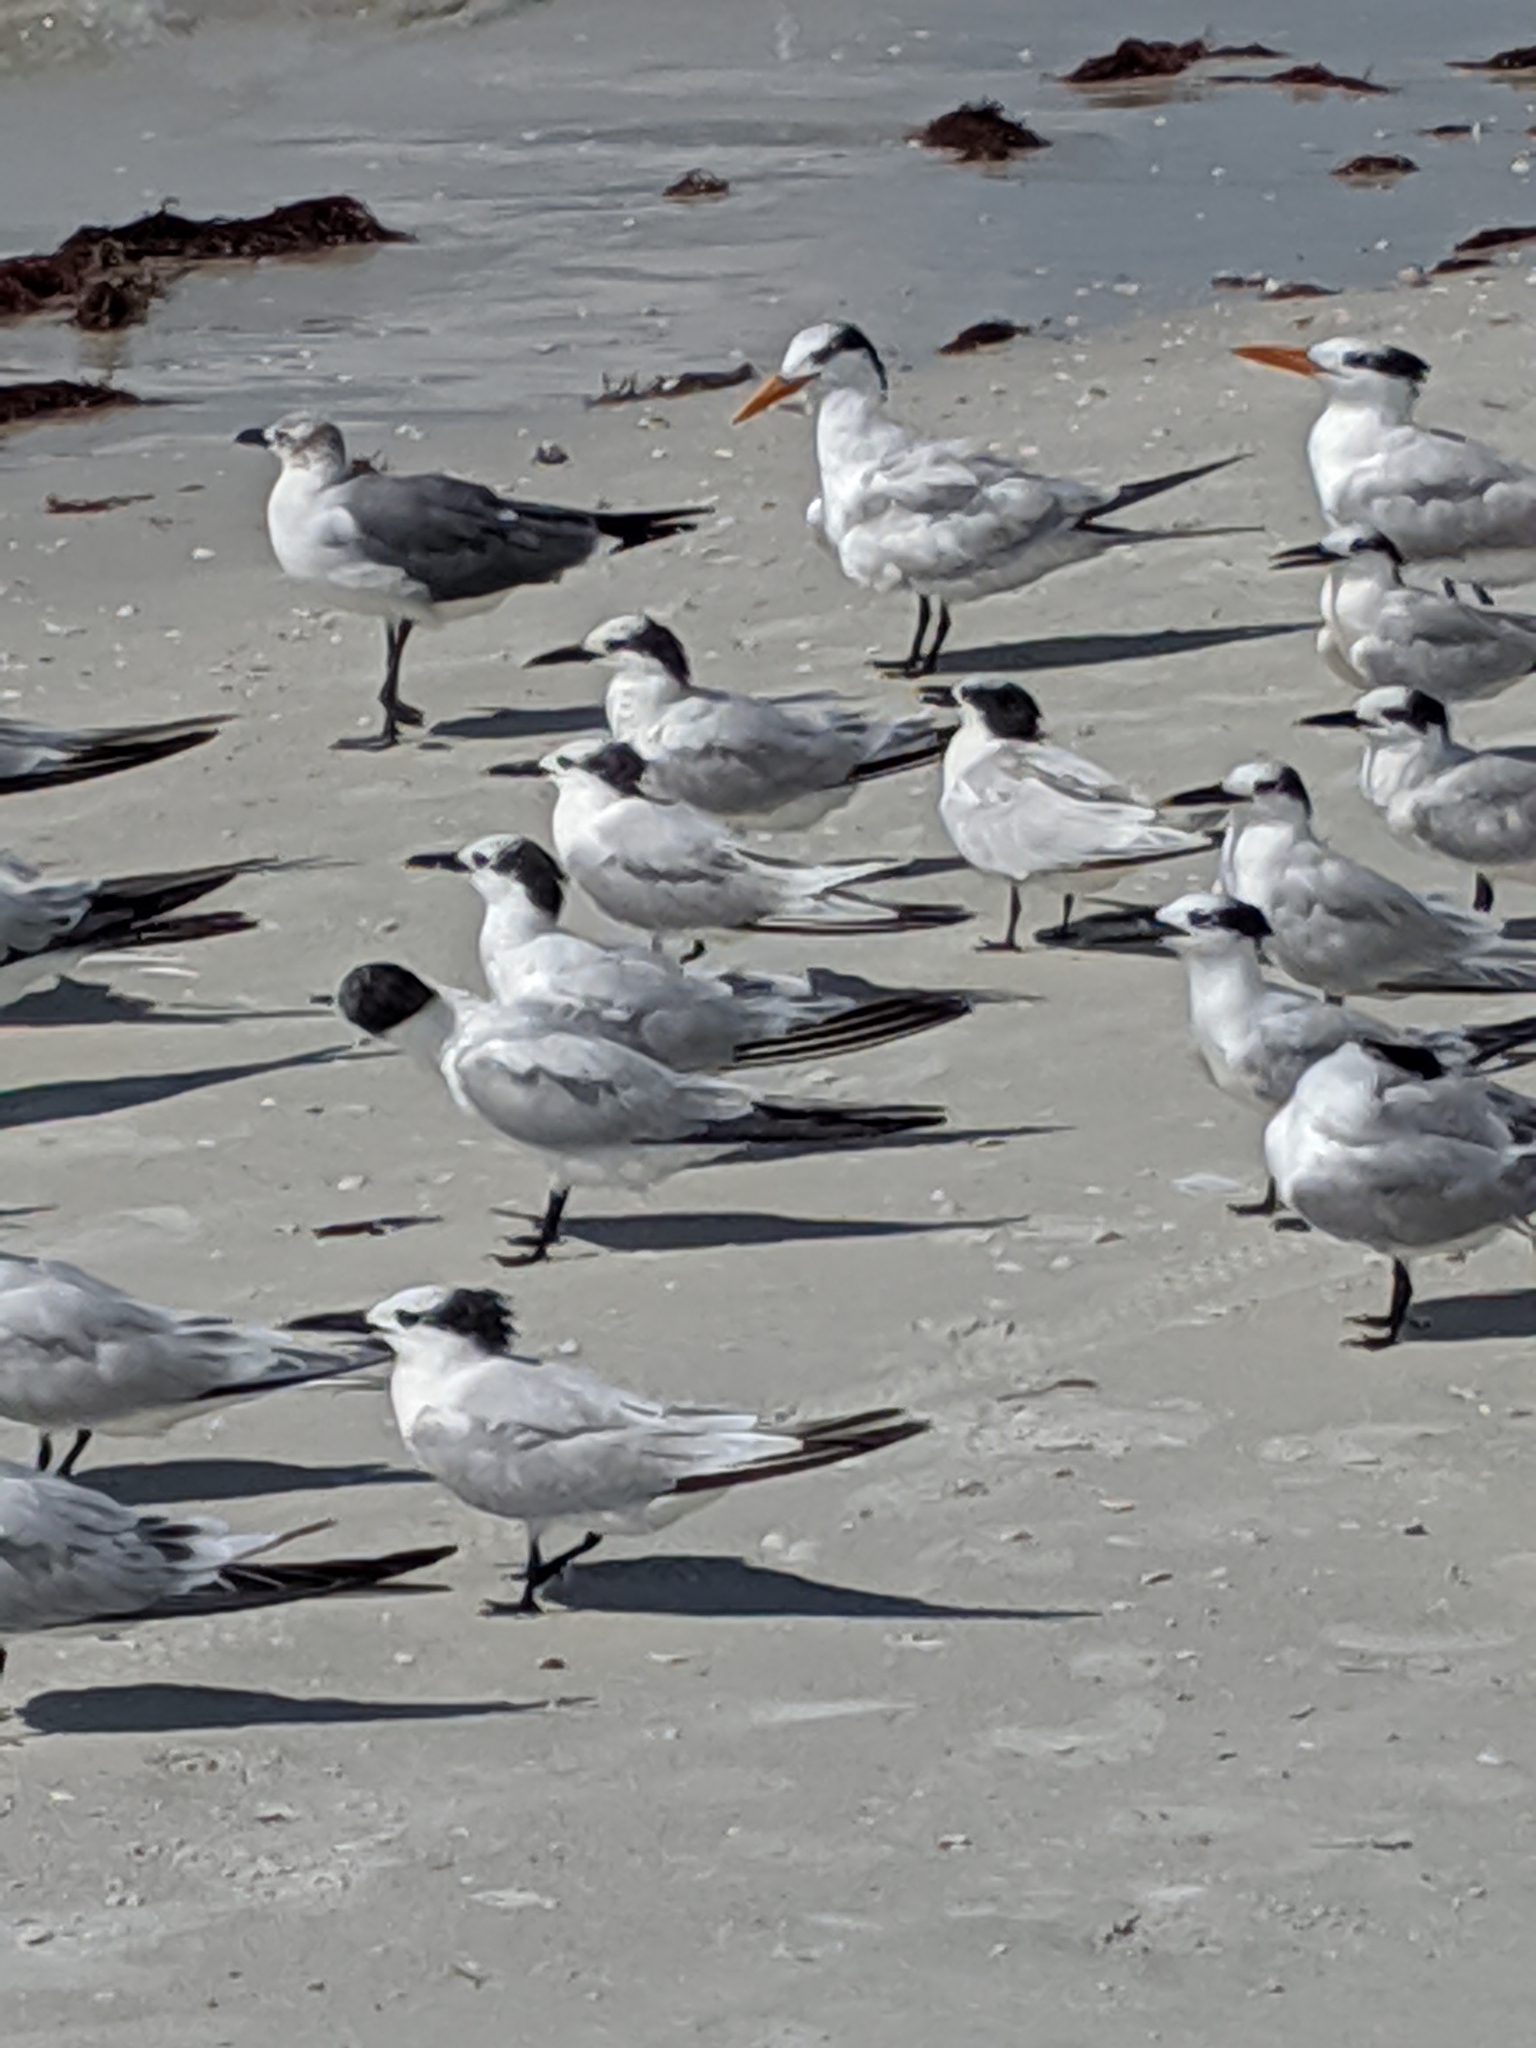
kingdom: Animalia
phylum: Chordata
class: Aves
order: Charadriiformes
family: Laridae
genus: Thalasseus
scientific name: Thalasseus sandvicensis
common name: Sandwich tern
